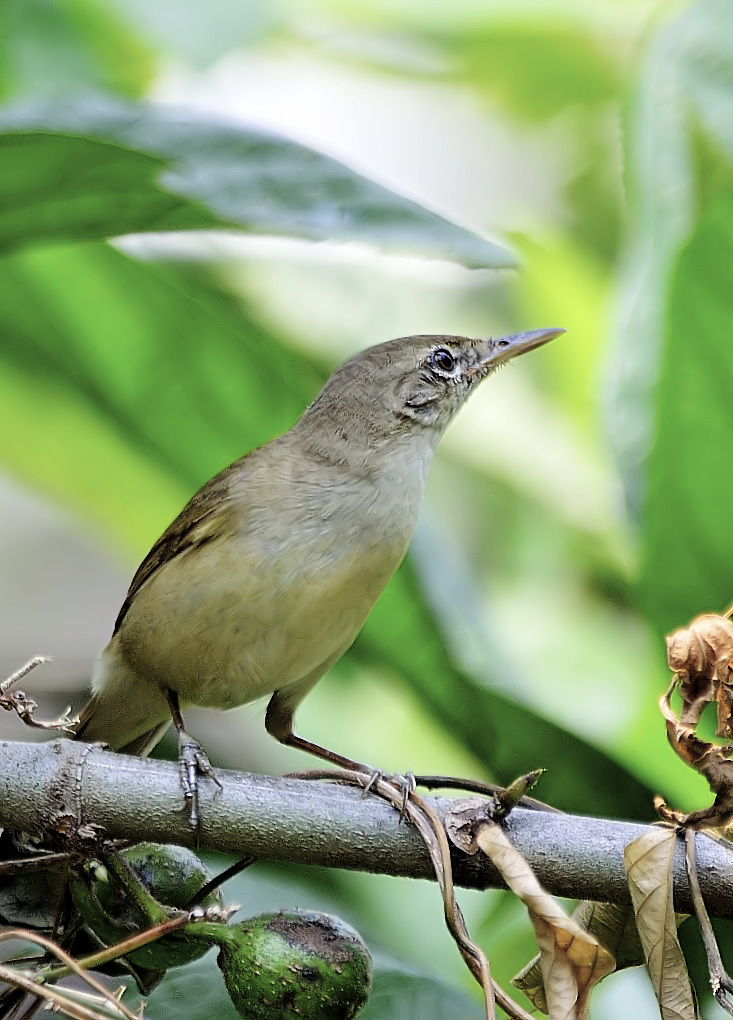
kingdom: Animalia
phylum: Chordata
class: Aves
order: Passeriformes
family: Acrocephalidae
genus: Acrocephalus
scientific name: Acrocephalus dumetorum
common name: Blyth's reed warbler
